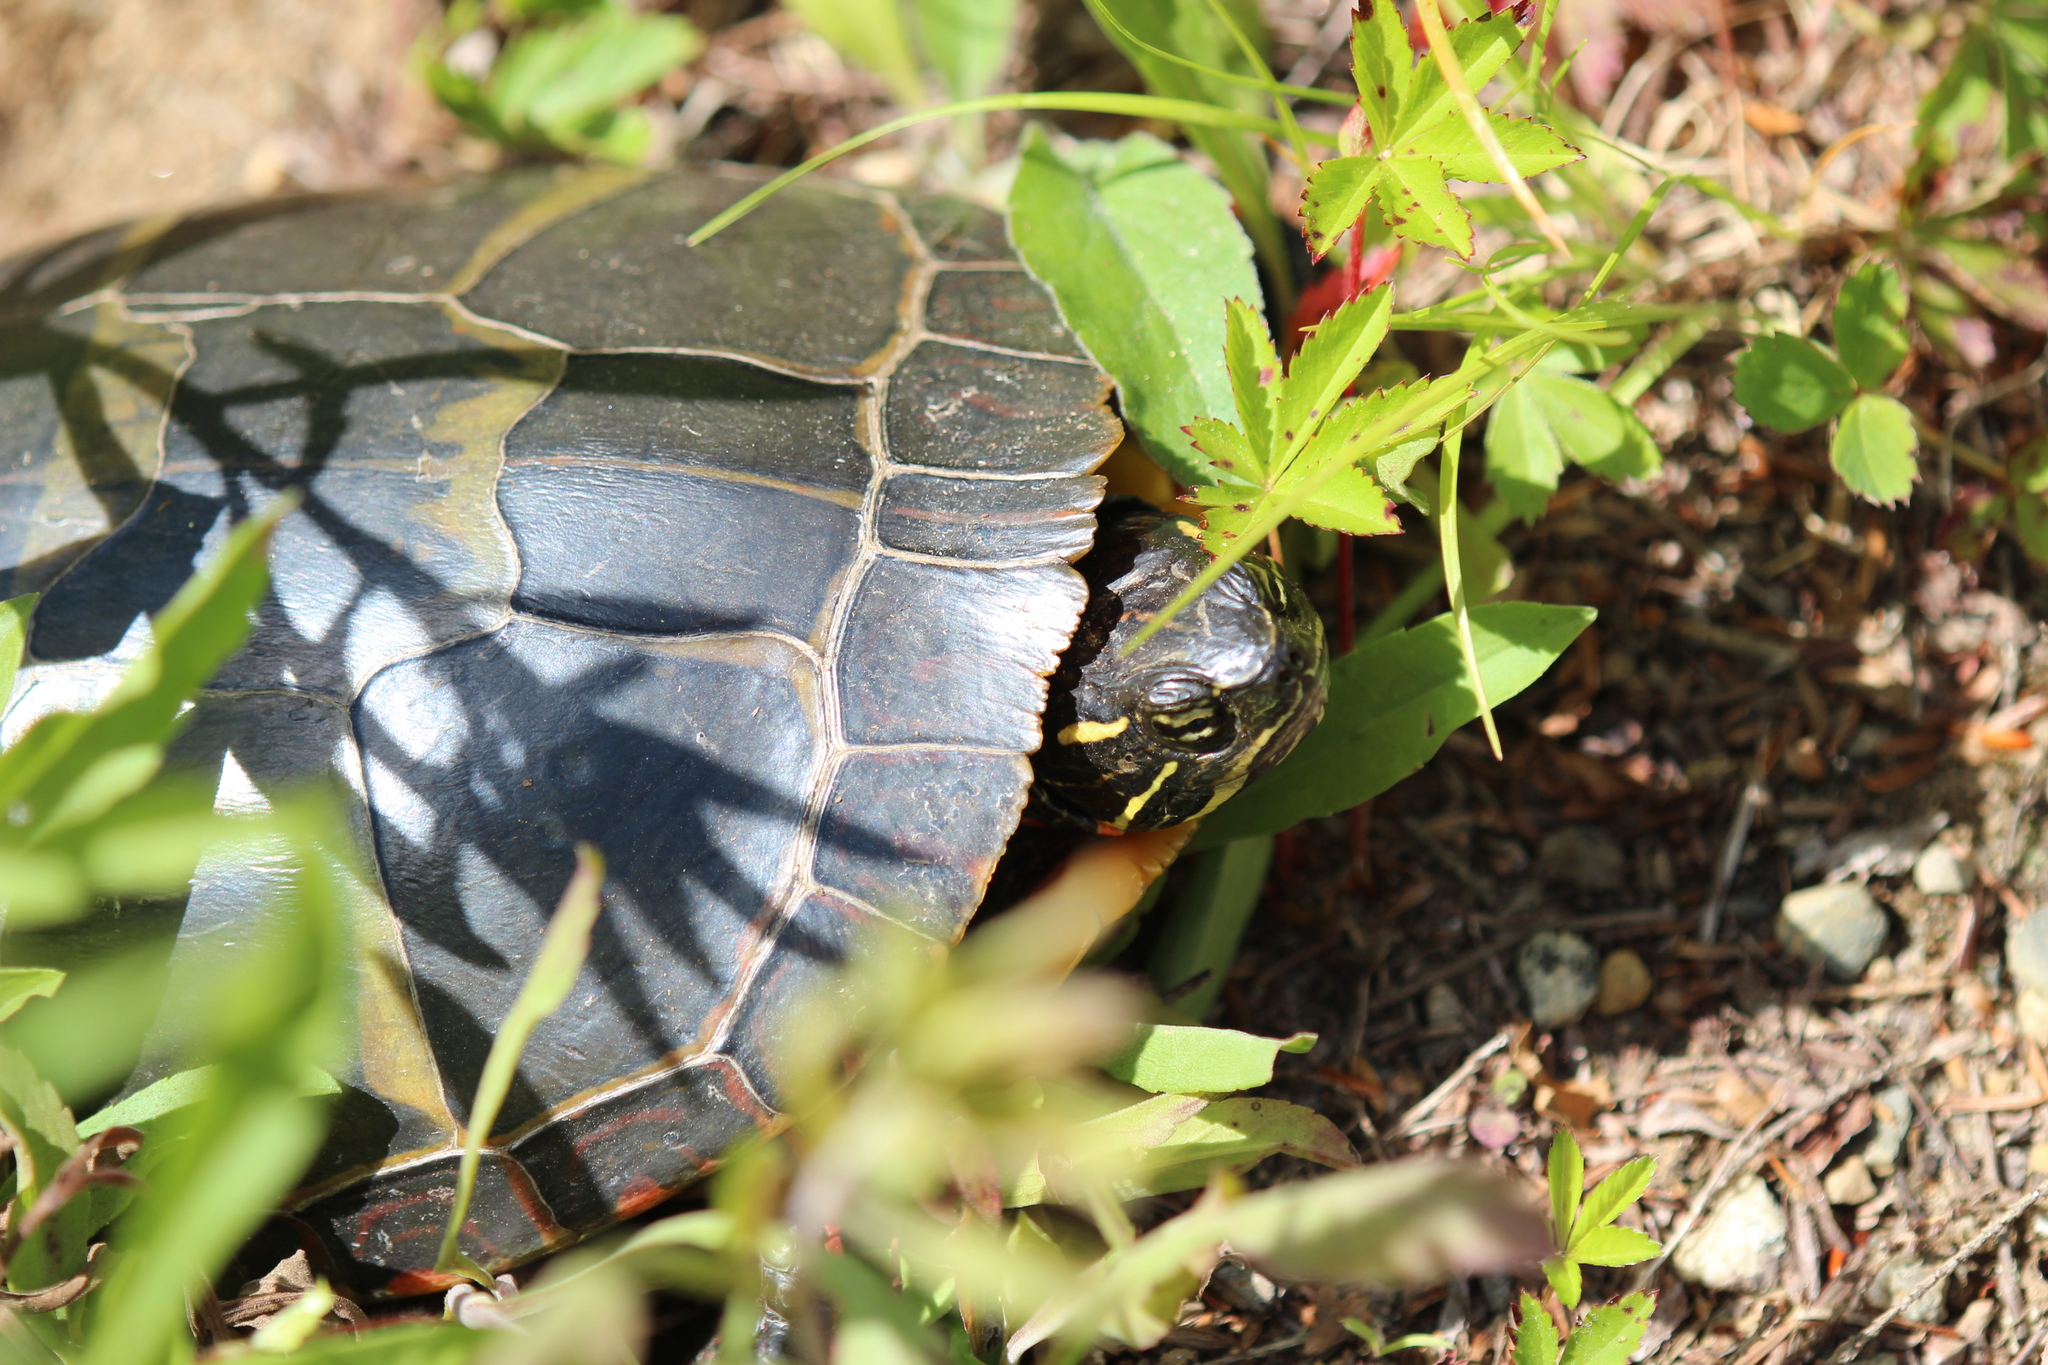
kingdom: Animalia
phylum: Chordata
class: Testudines
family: Emydidae
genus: Chrysemys
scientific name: Chrysemys picta
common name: Painted turtle
